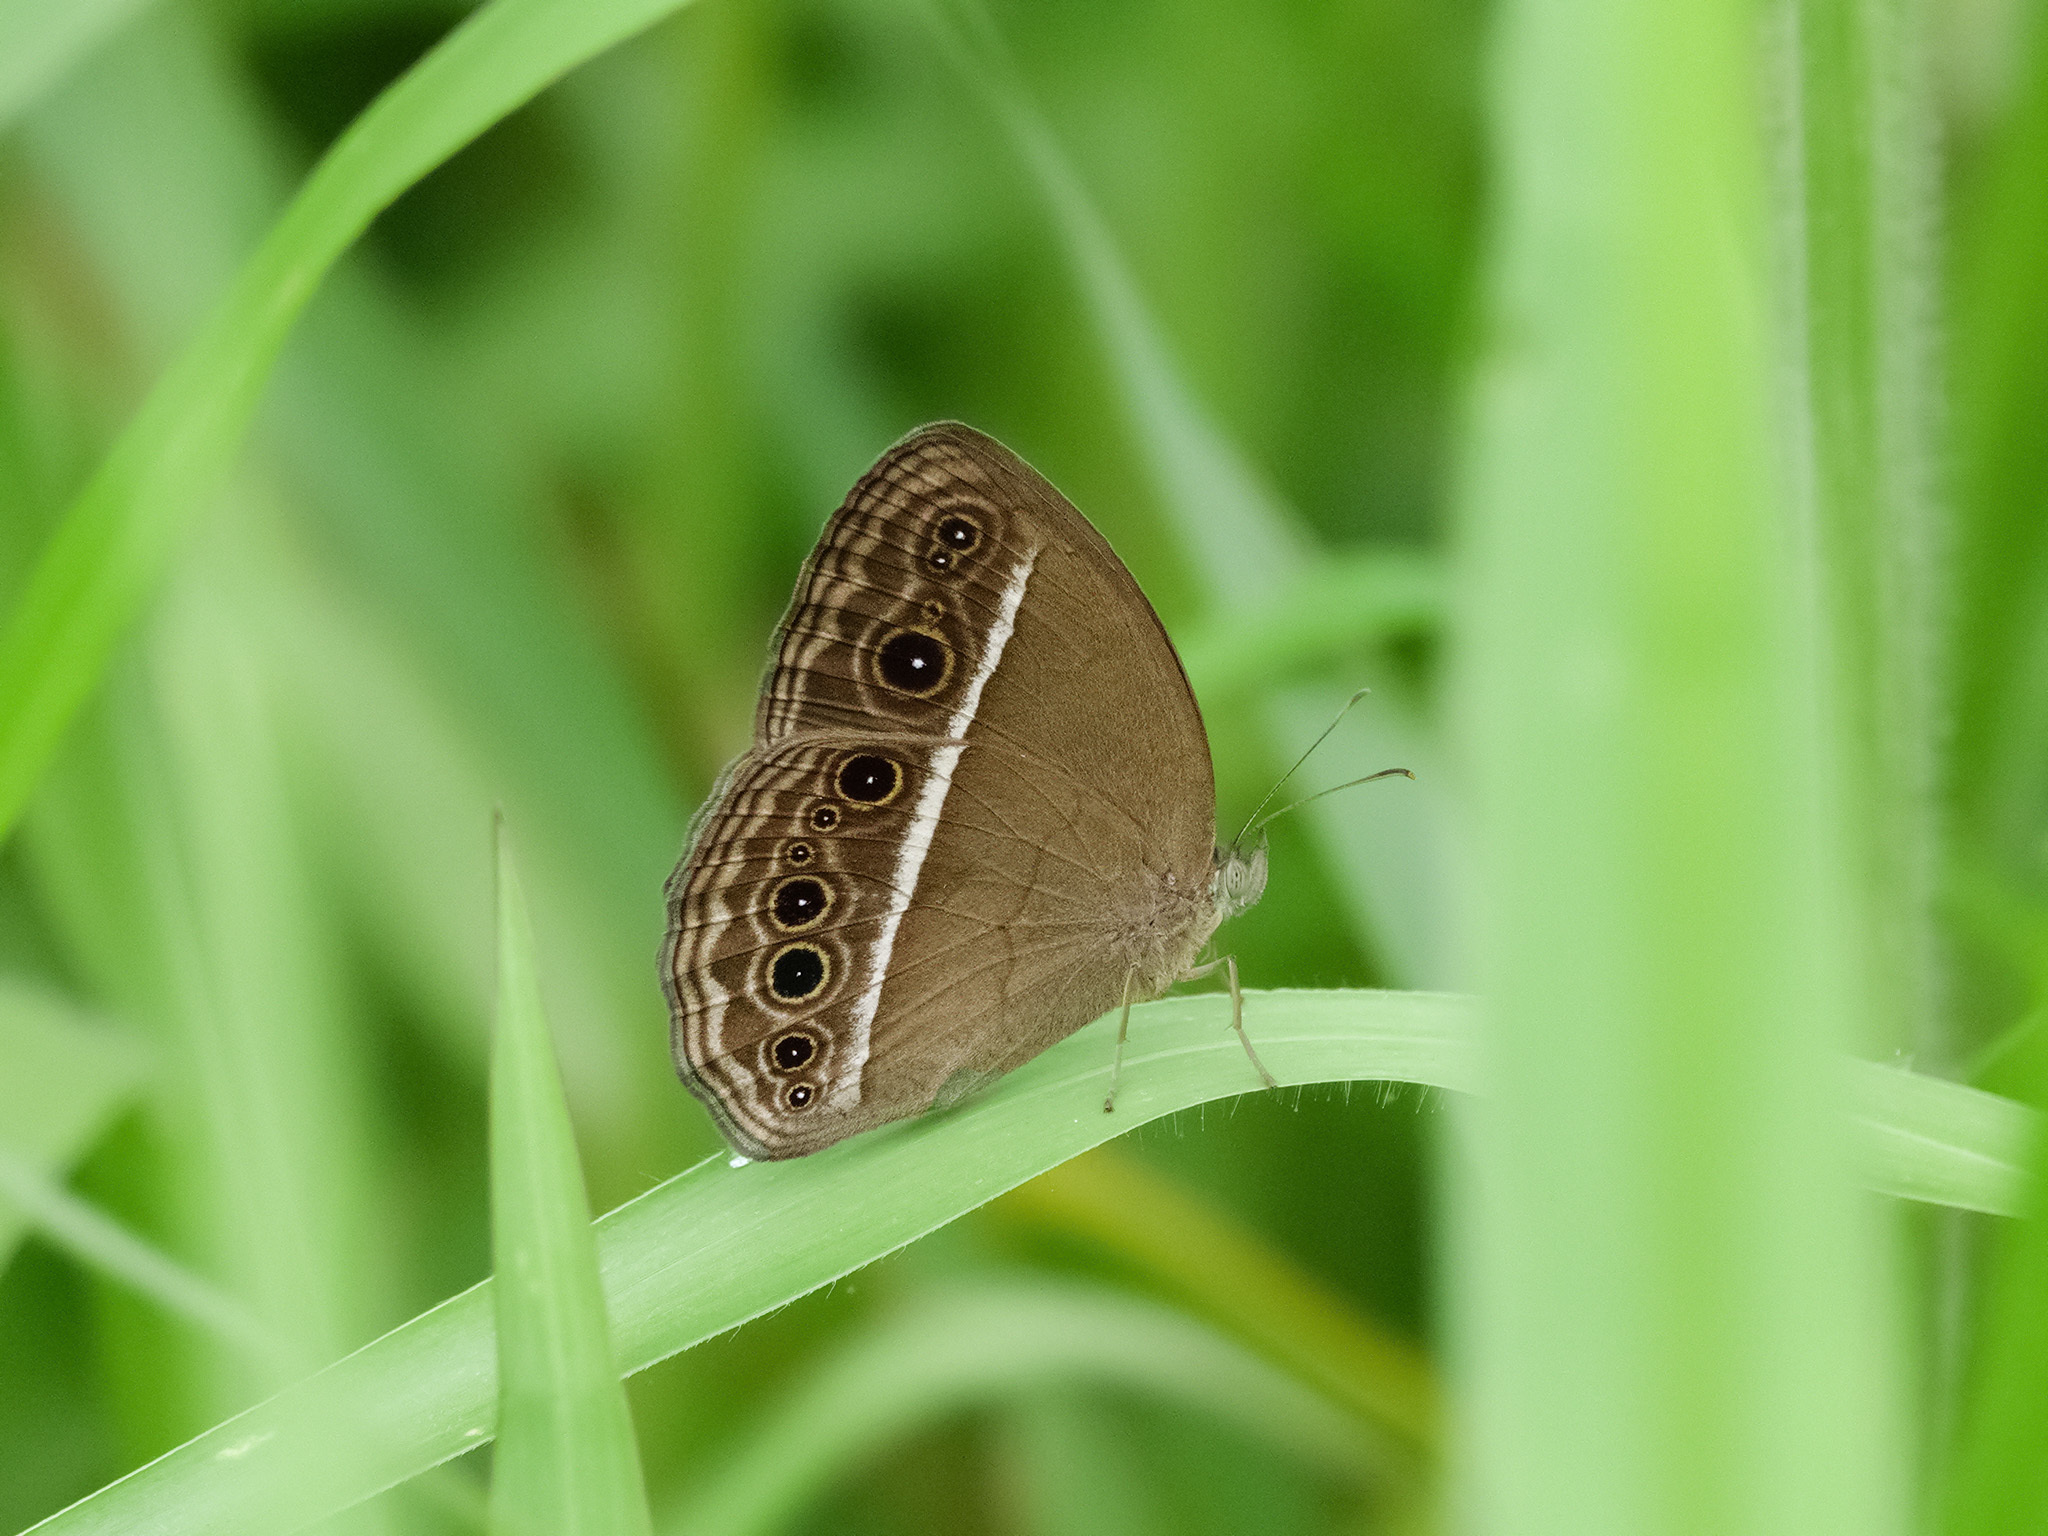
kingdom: Animalia
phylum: Arthropoda
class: Insecta
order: Lepidoptera
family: Nymphalidae
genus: Mycalesis
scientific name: Mycalesis mineus
